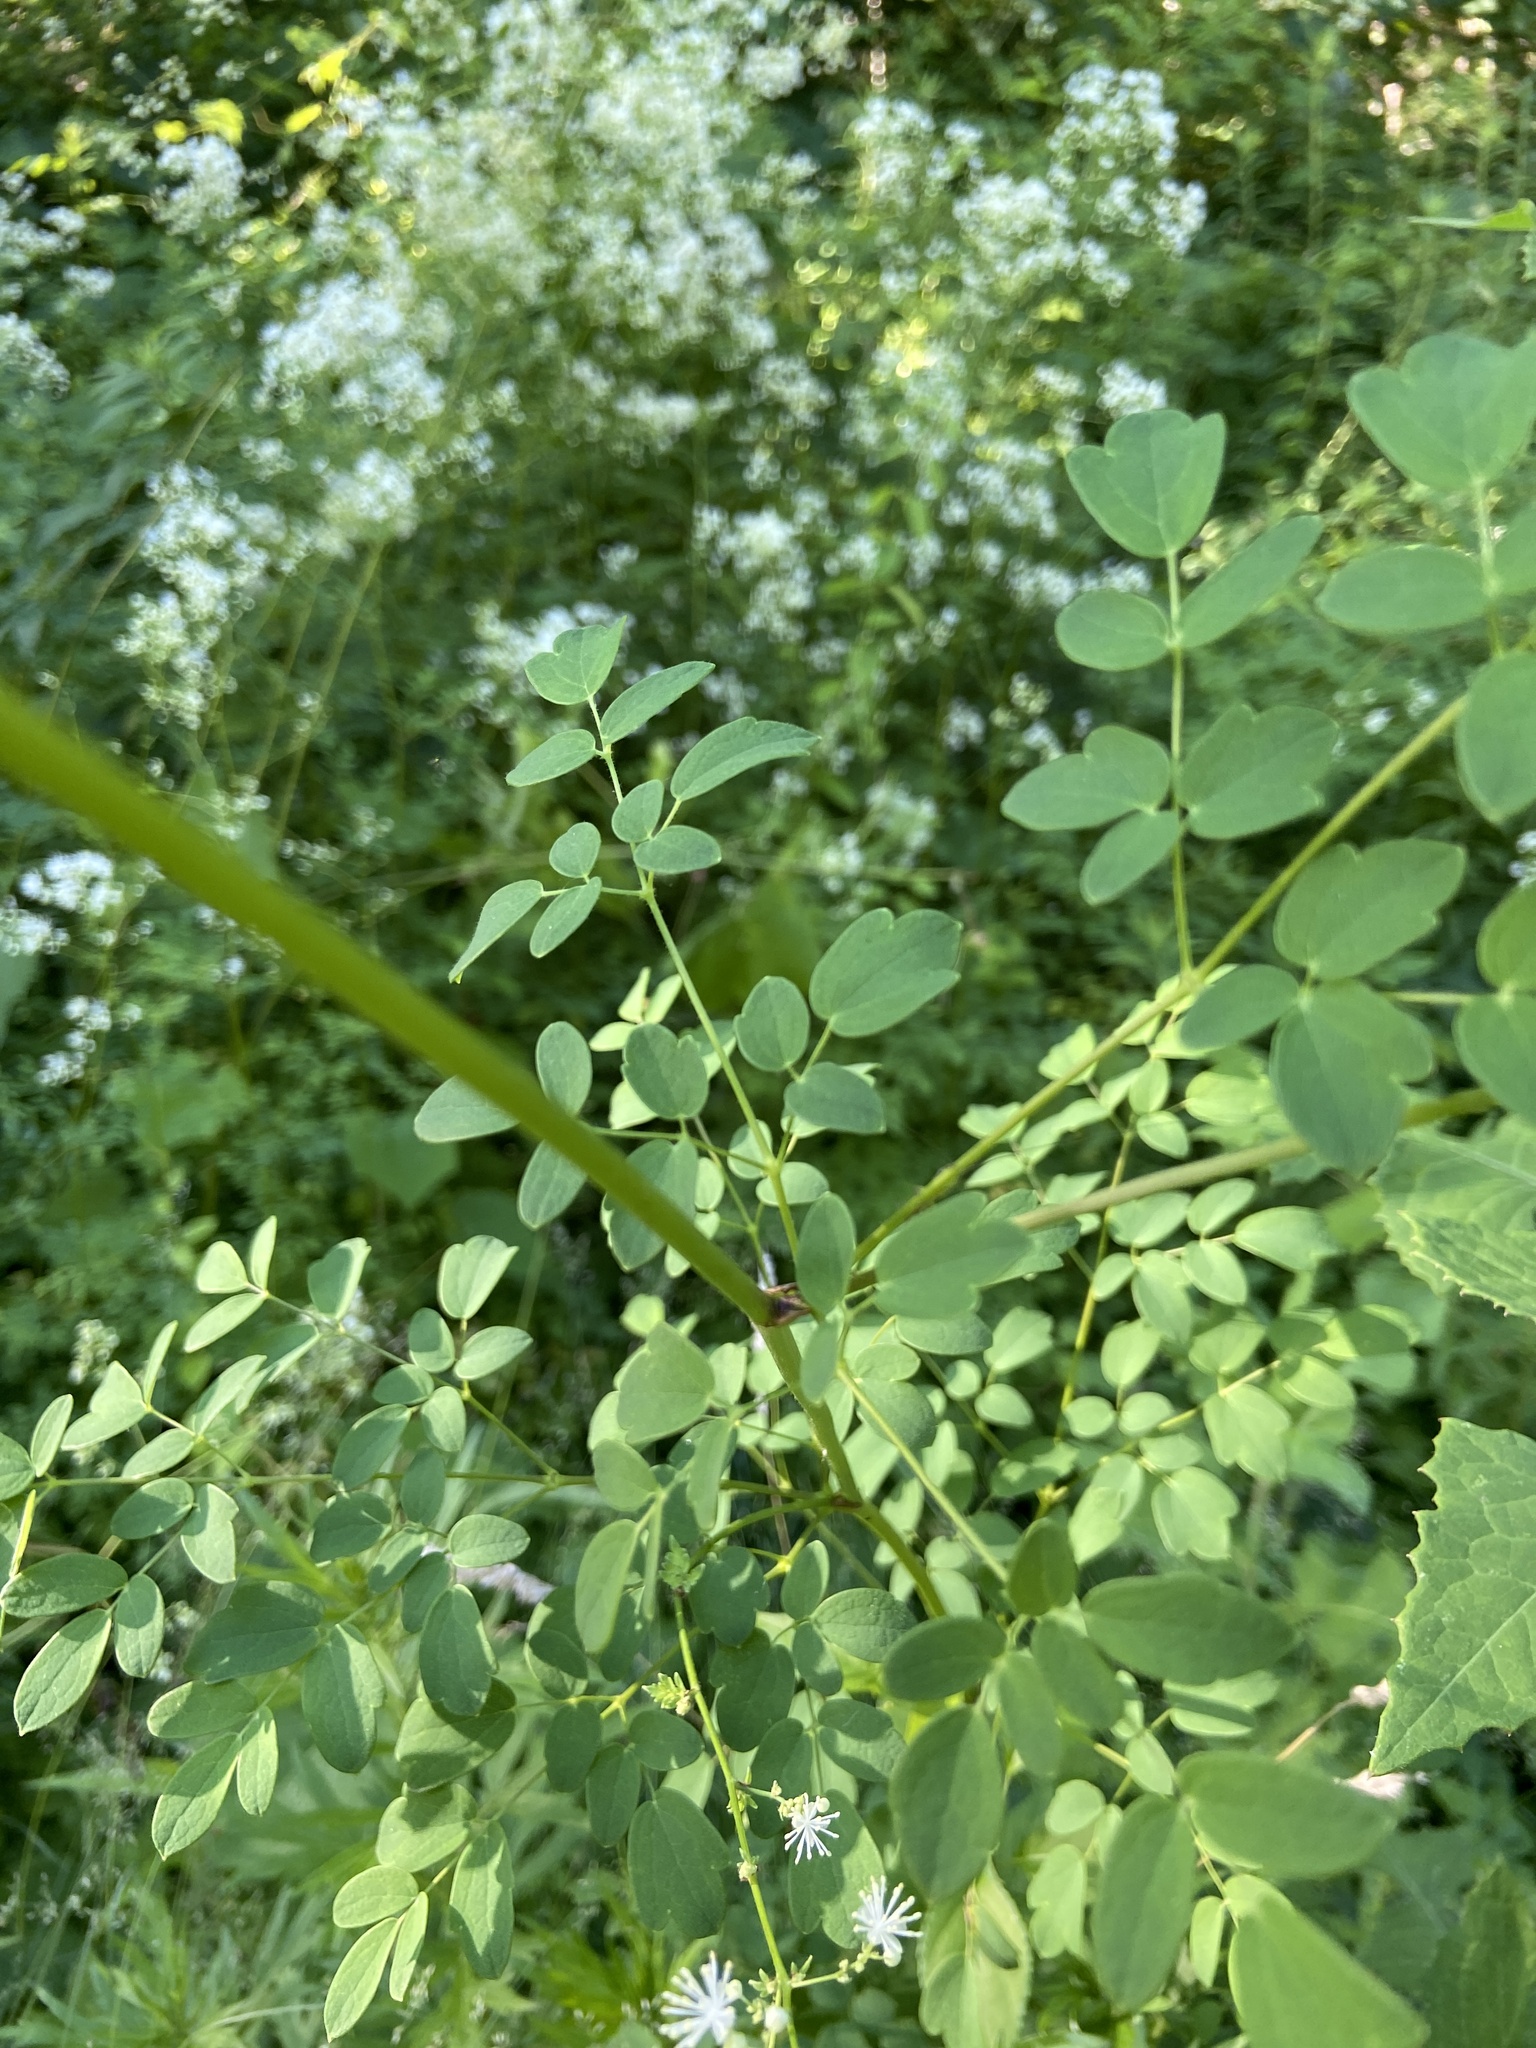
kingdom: Plantae
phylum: Tracheophyta
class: Magnoliopsida
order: Ranunculales
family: Ranunculaceae
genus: Thalictrum
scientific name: Thalictrum pubescens
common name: King-of-the-meadow
